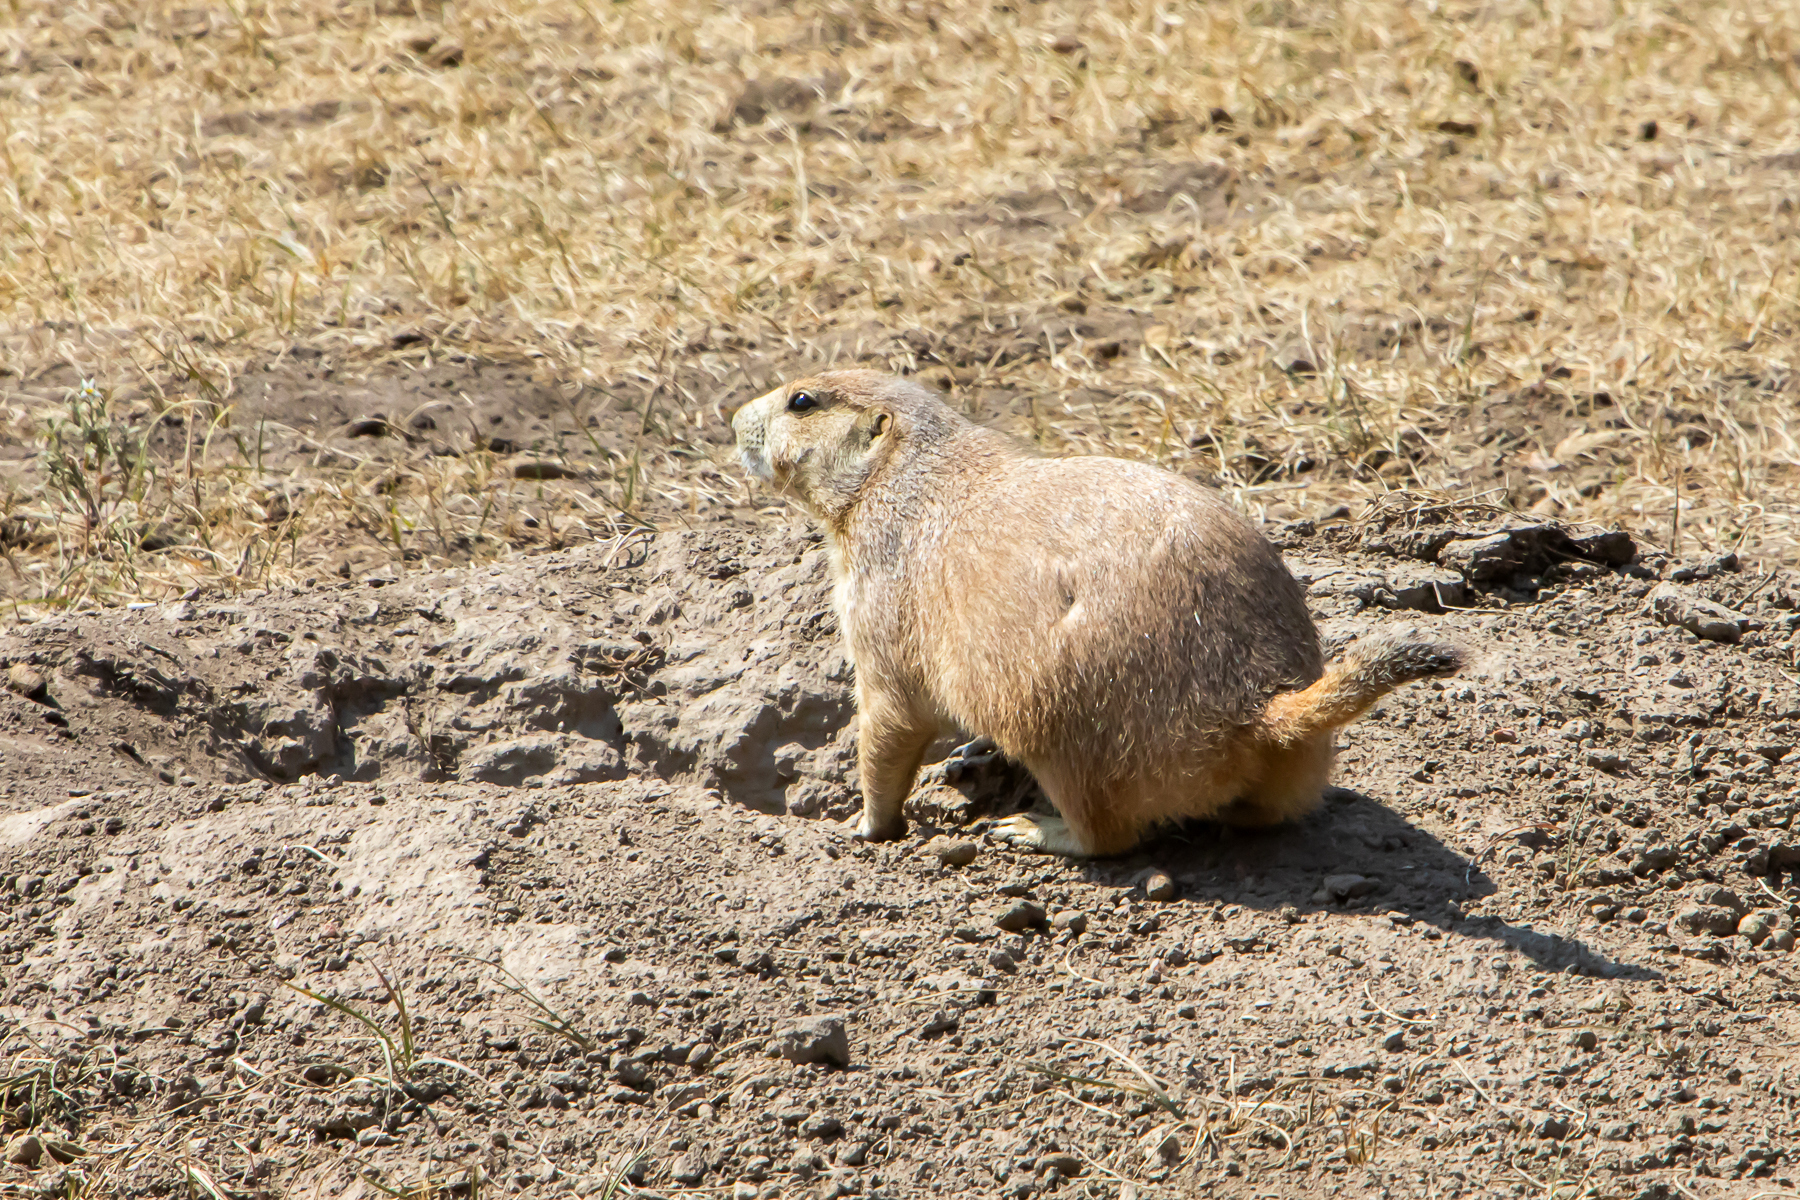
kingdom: Animalia
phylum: Chordata
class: Mammalia
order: Rodentia
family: Sciuridae
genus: Cynomys
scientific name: Cynomys ludovicianus
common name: Black-tailed prairie dog
